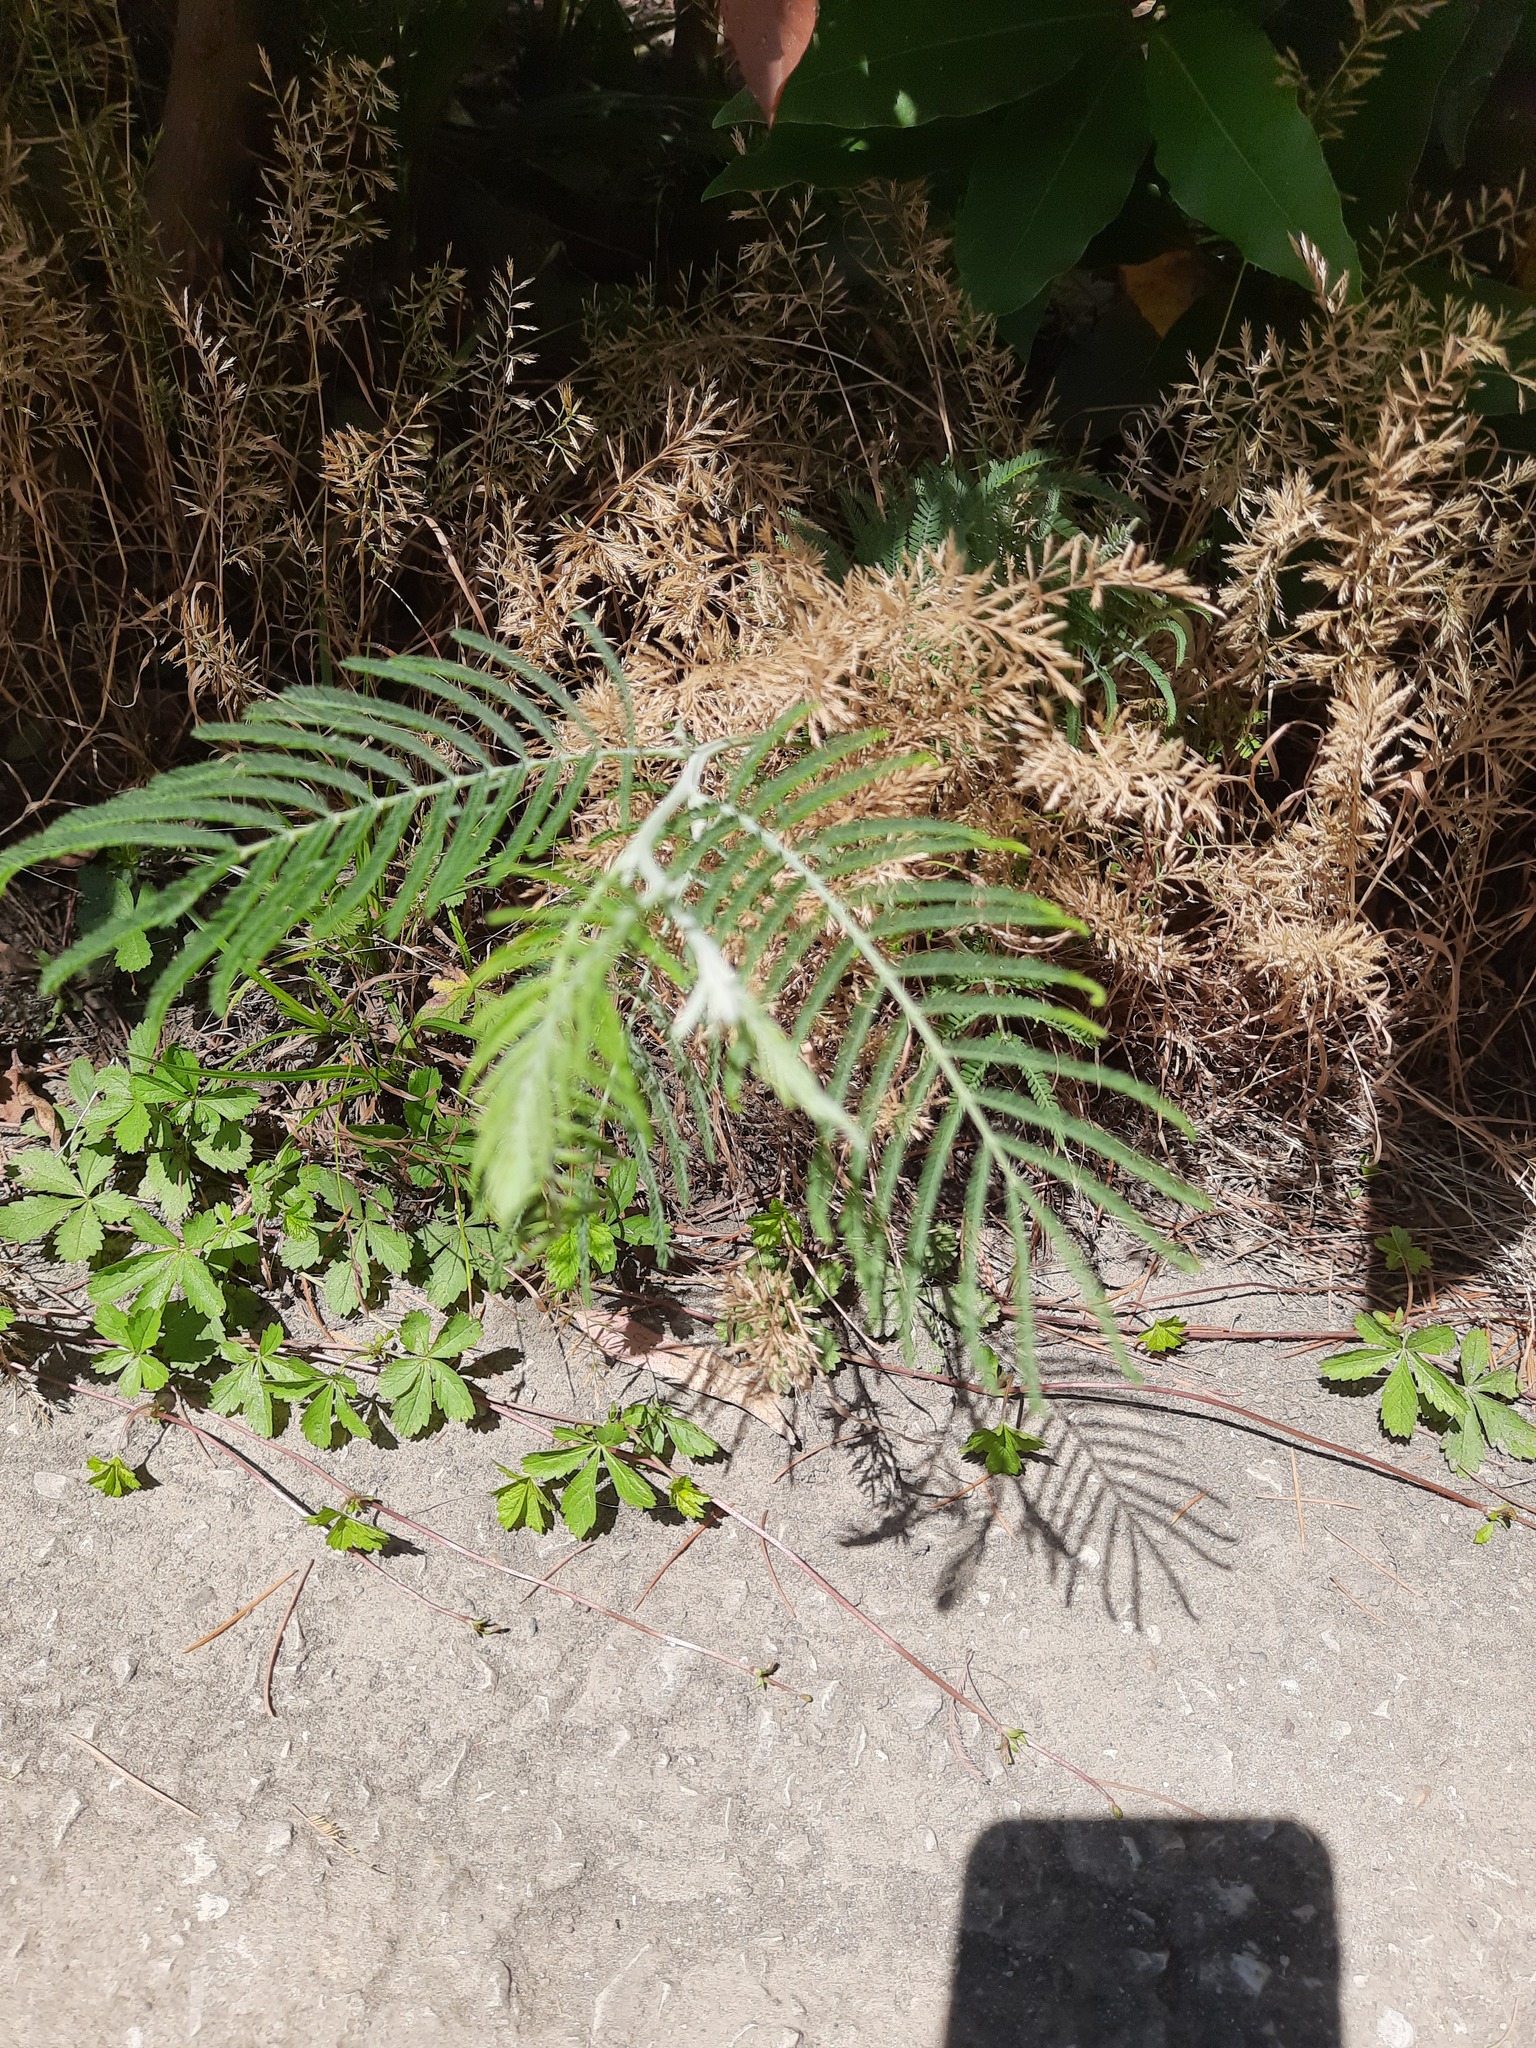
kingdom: Plantae
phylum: Tracheophyta
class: Magnoliopsida
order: Fabales
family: Fabaceae
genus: Acacia
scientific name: Acacia dealbata
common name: Silver wattle
